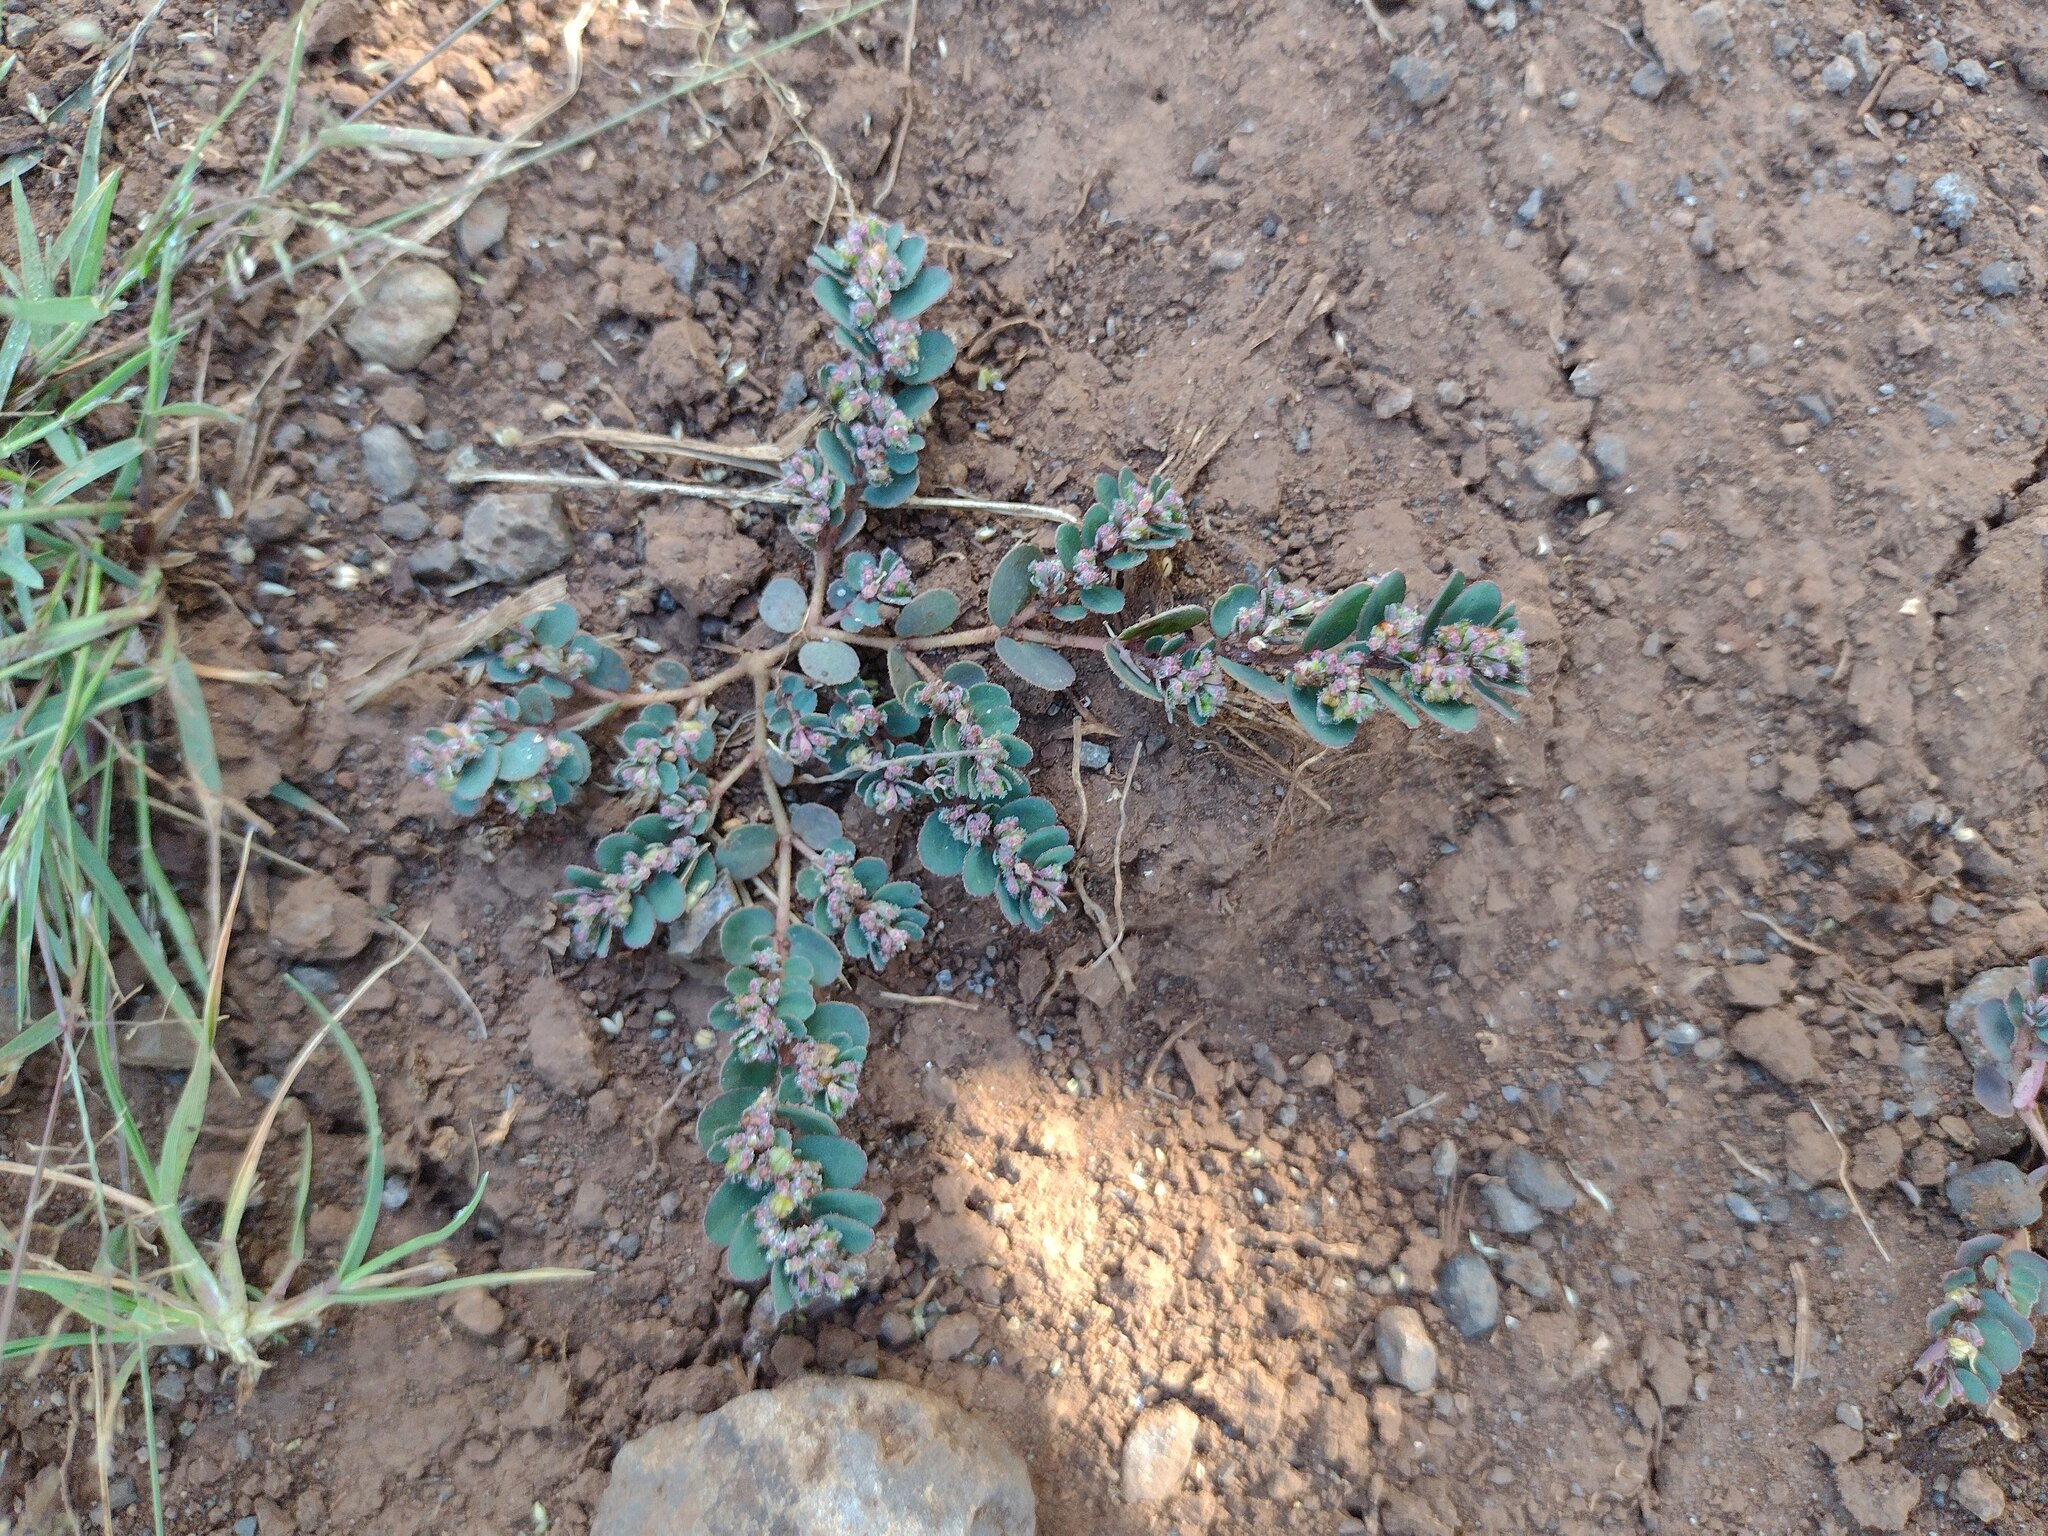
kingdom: Plantae
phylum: Tracheophyta
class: Magnoliopsida
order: Malpighiales
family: Euphorbiaceae
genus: Euphorbia
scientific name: Euphorbia prostrata
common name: Prostrate sandmat
